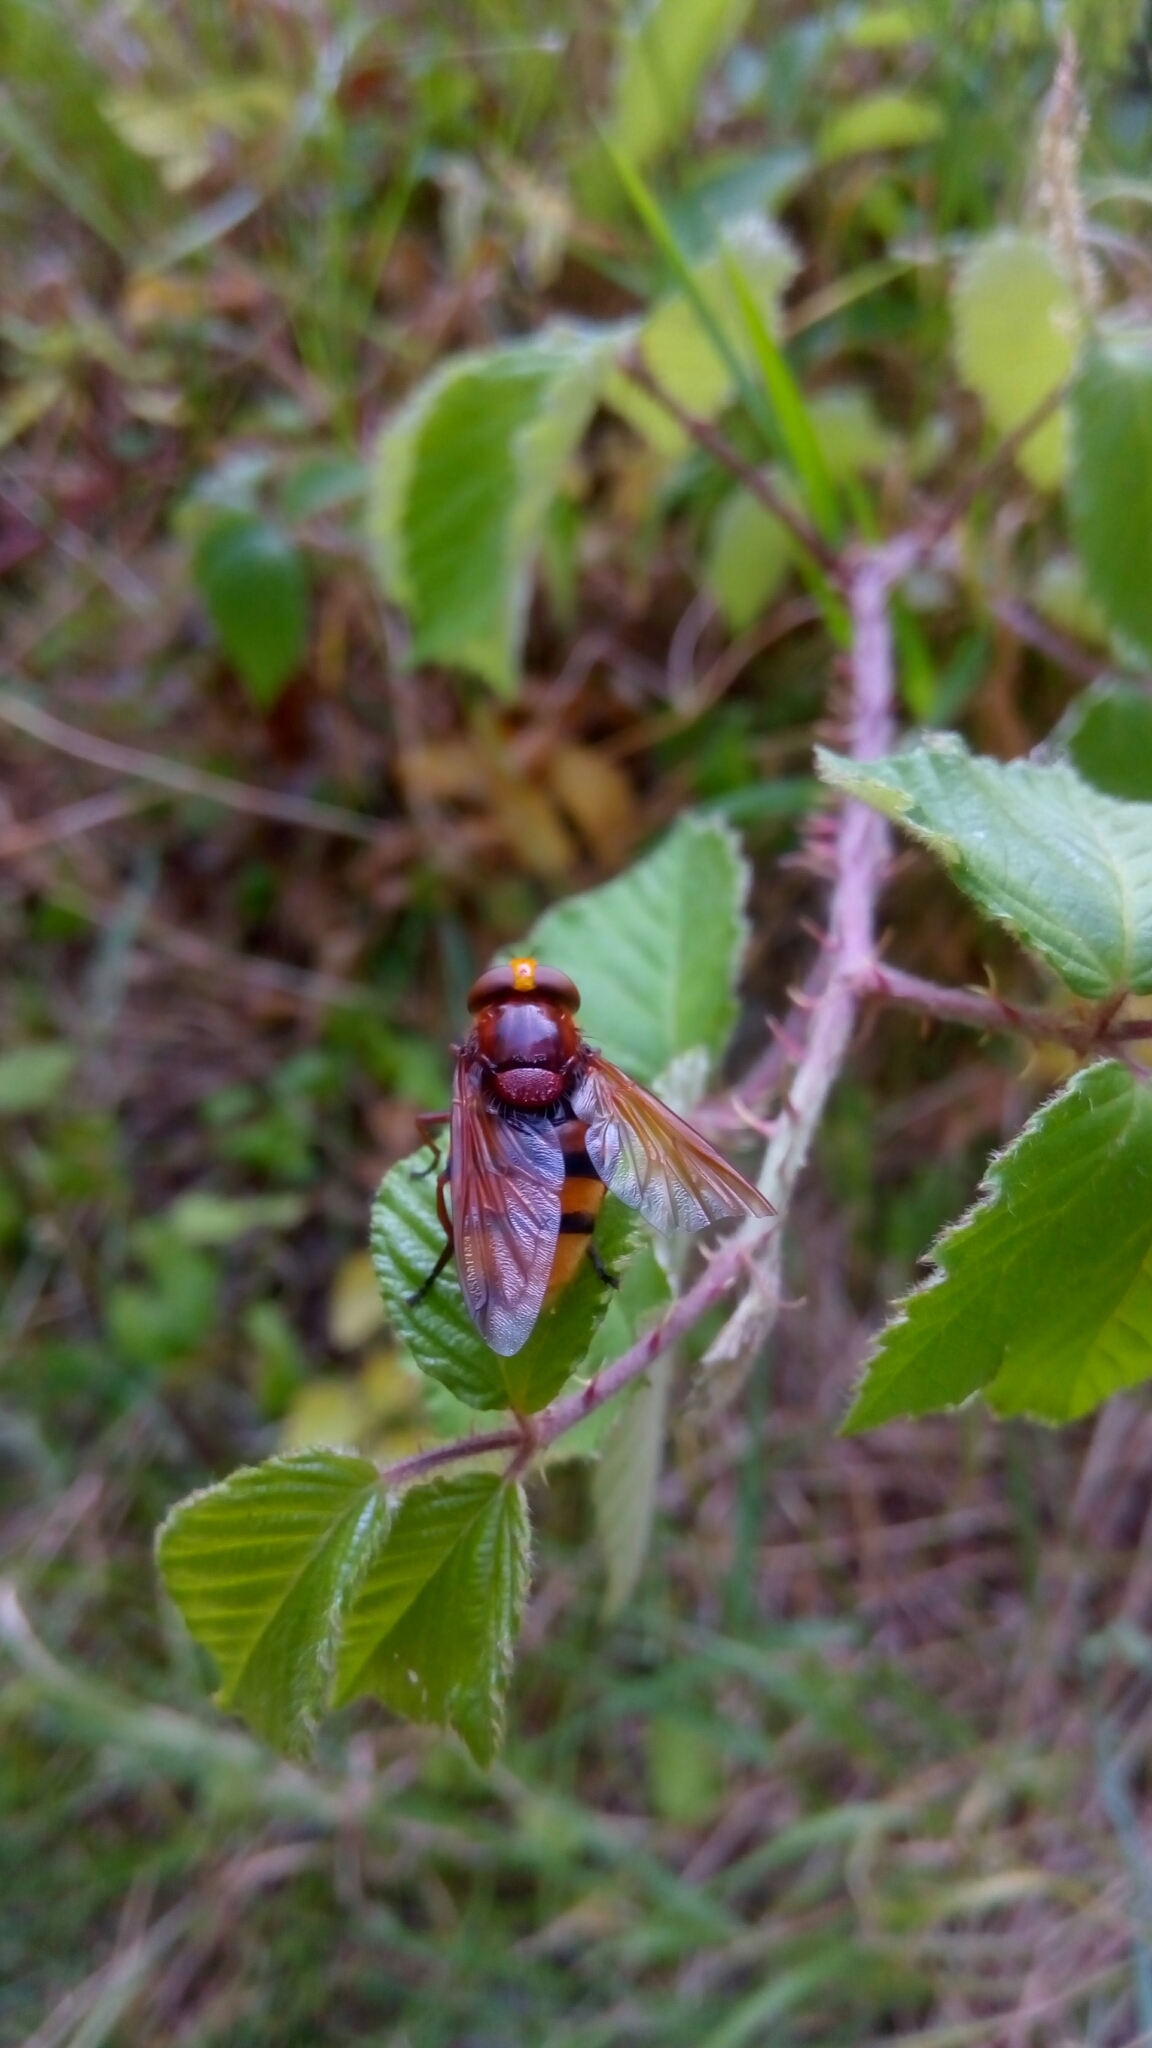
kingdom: Animalia
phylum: Arthropoda
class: Insecta
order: Diptera
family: Syrphidae
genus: Volucella
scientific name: Volucella zonaria
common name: Hornet hoverfly
